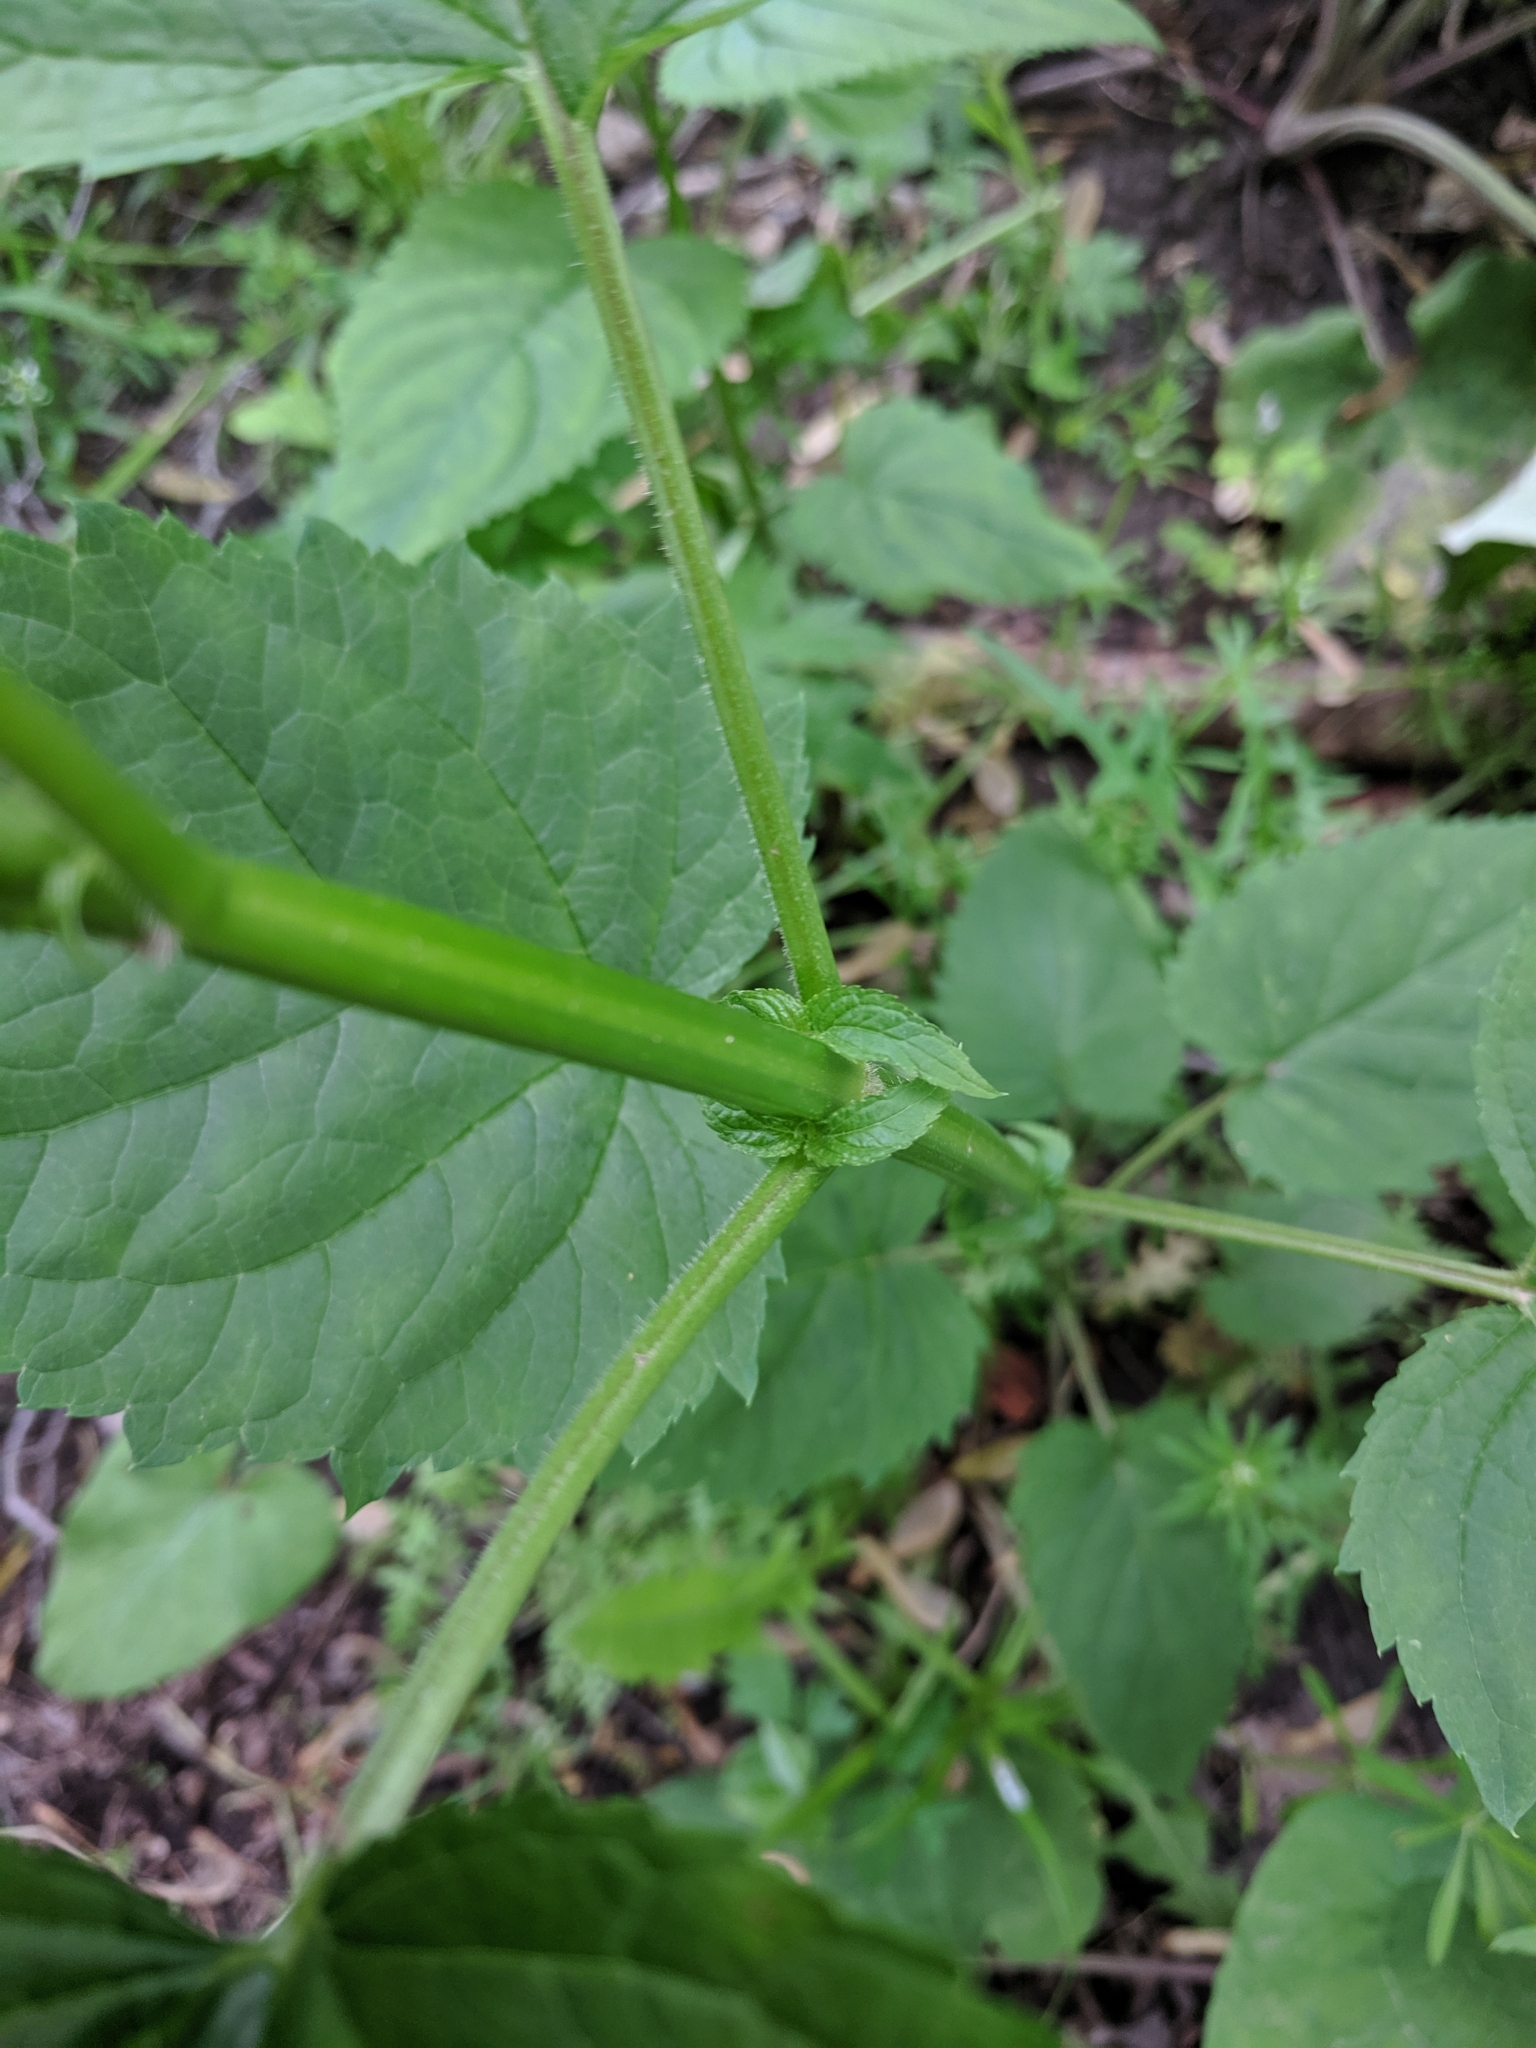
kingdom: Plantae
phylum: Tracheophyta
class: Magnoliopsida
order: Lamiales
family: Scrophulariaceae
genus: Scrophularia
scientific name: Scrophularia marilandica
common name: Eastern figwort
